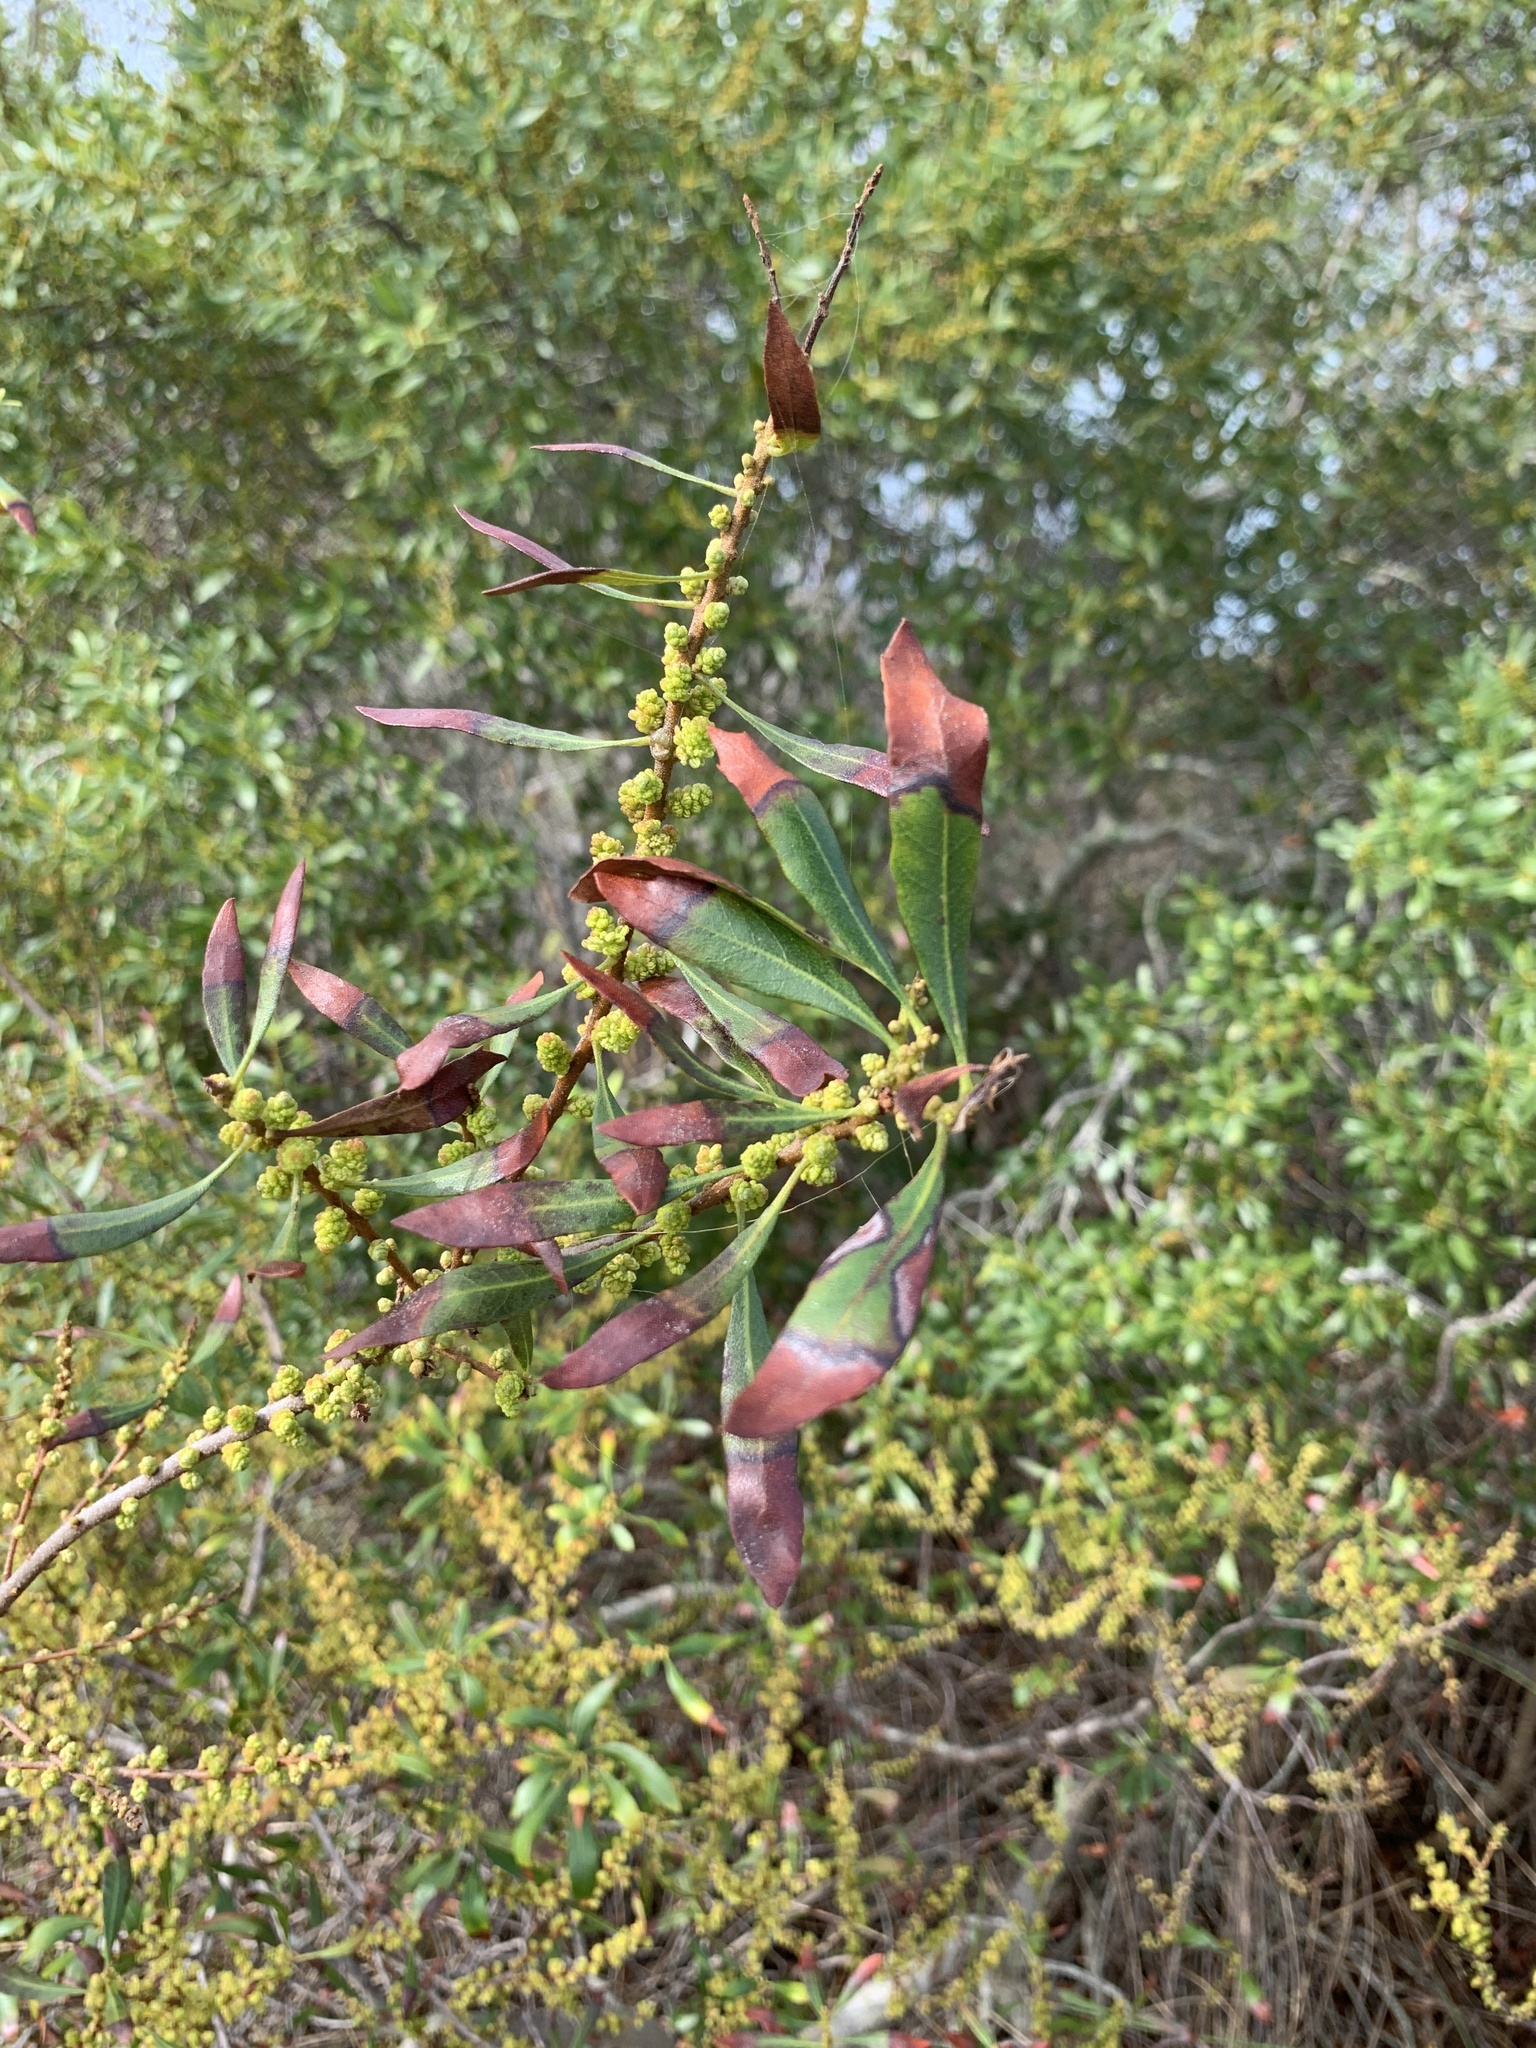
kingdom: Plantae
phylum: Tracheophyta
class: Magnoliopsida
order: Fagales
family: Myricaceae
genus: Morella
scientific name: Morella cerifera
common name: Wax myrtle
